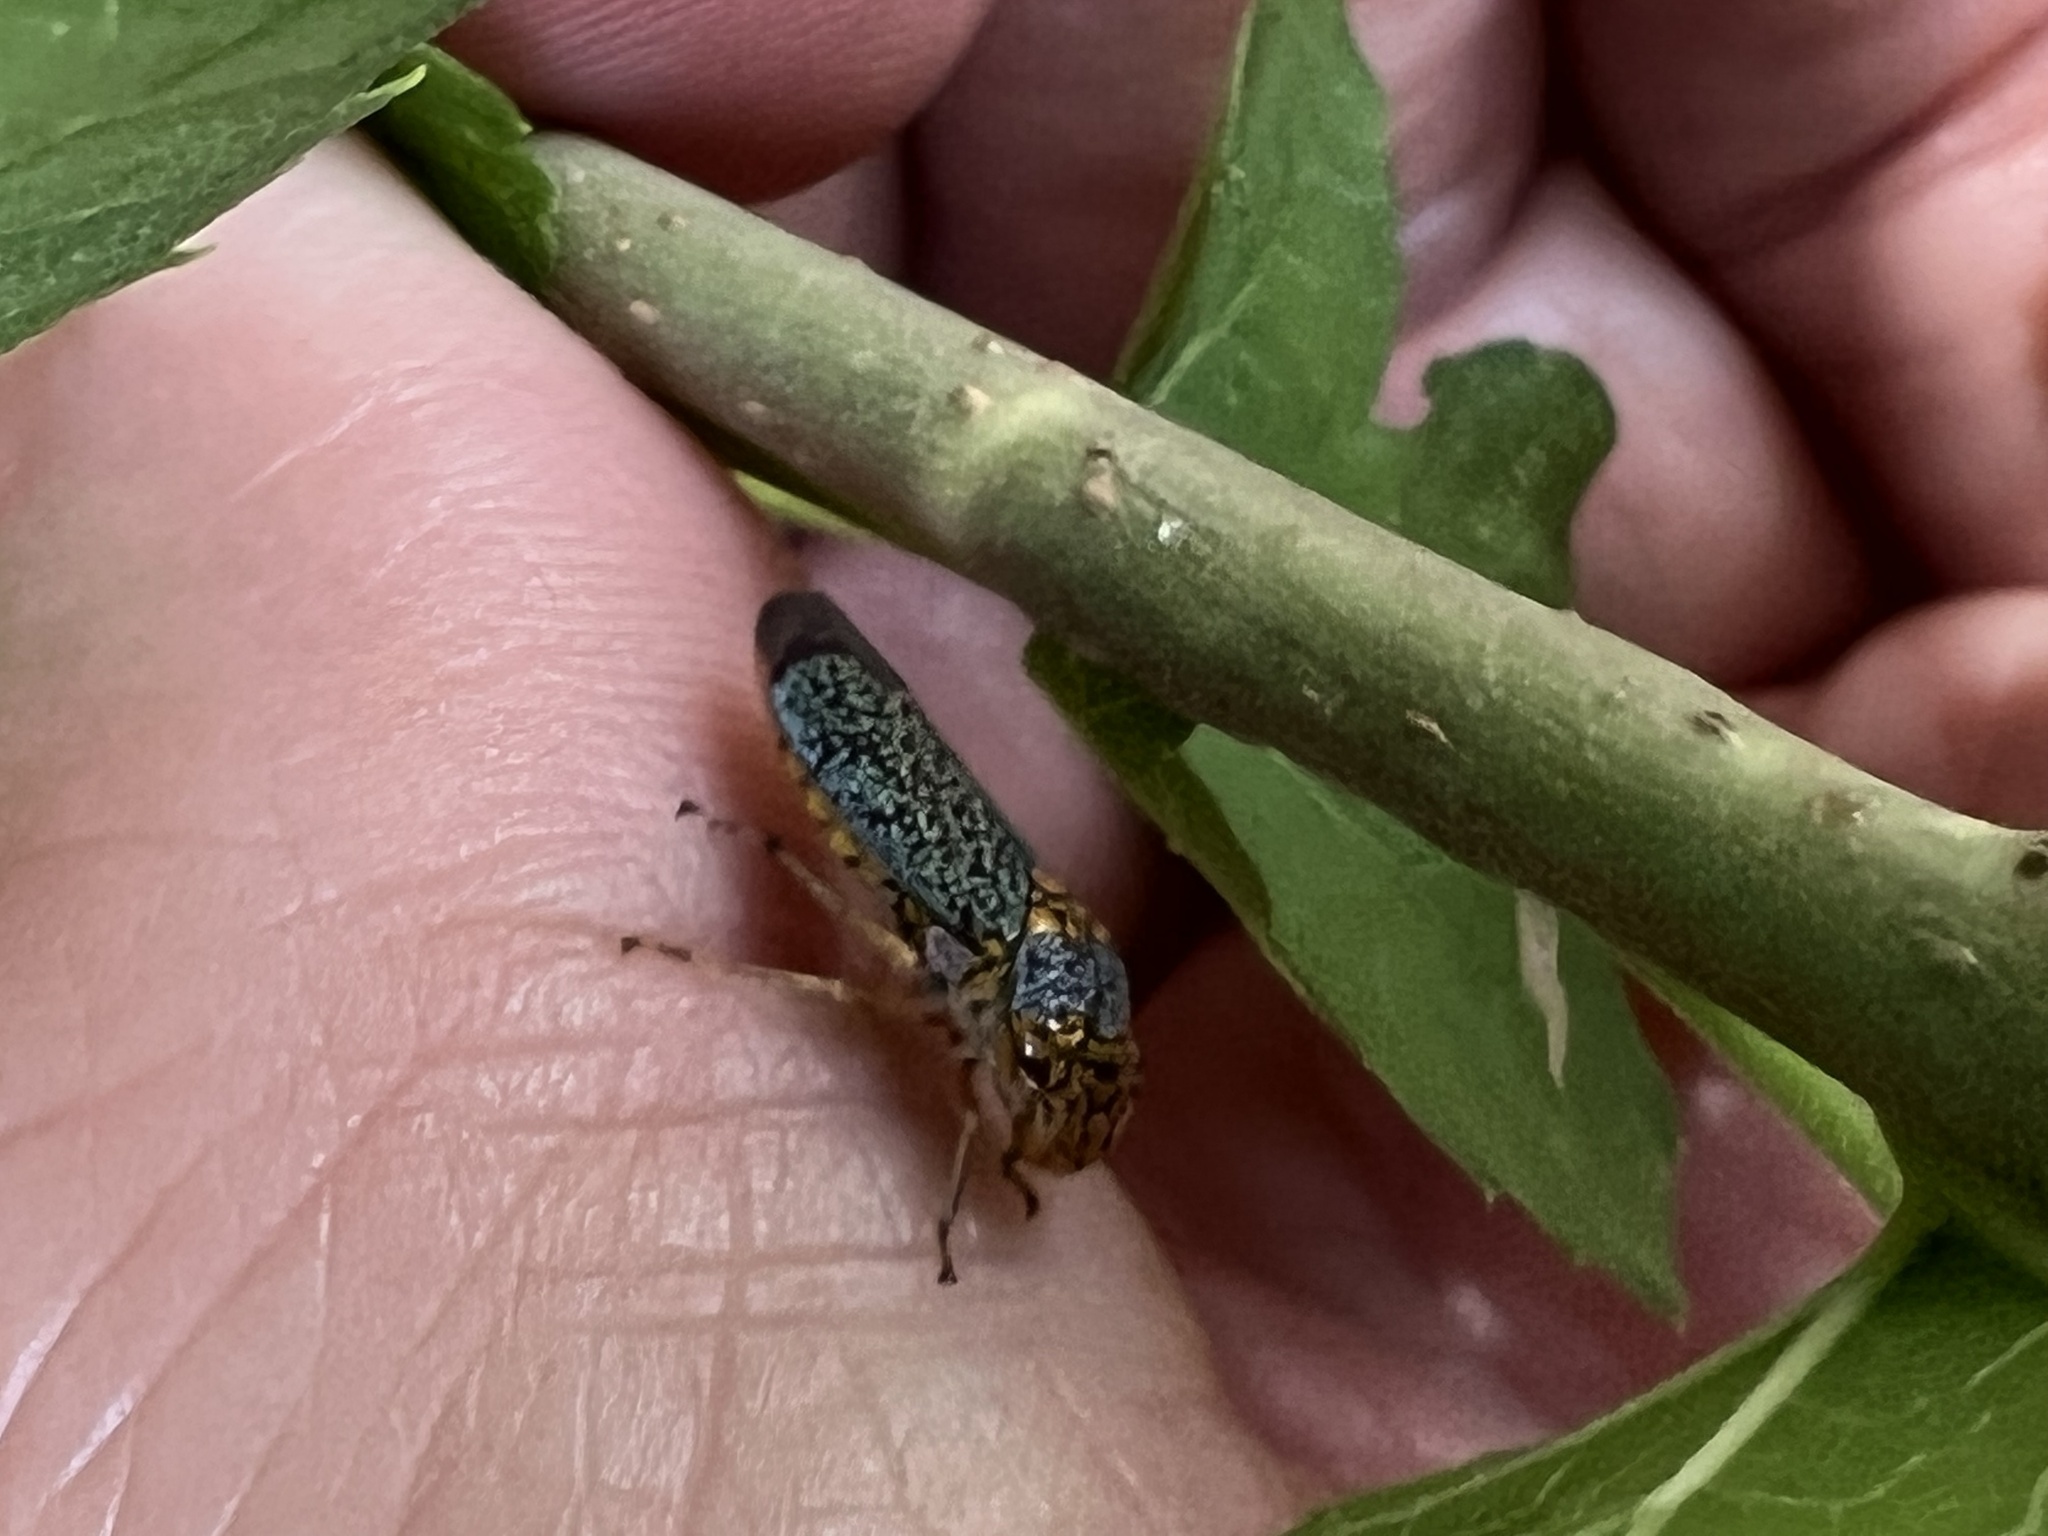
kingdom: Animalia
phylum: Arthropoda
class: Insecta
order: Hemiptera
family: Cicadellidae
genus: Oncometopia
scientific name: Oncometopia orbona
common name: Broad-headed sharpshooter
